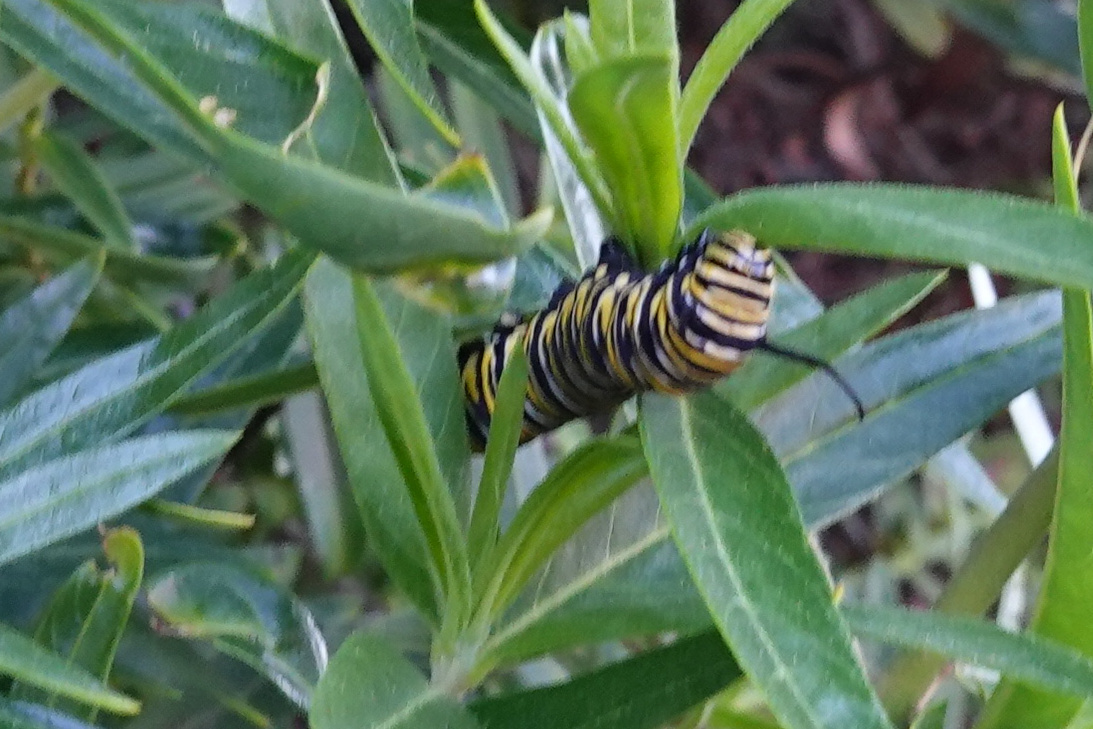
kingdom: Animalia
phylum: Arthropoda
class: Insecta
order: Lepidoptera
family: Nymphalidae
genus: Danaus
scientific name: Danaus plexippus
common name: Monarch
